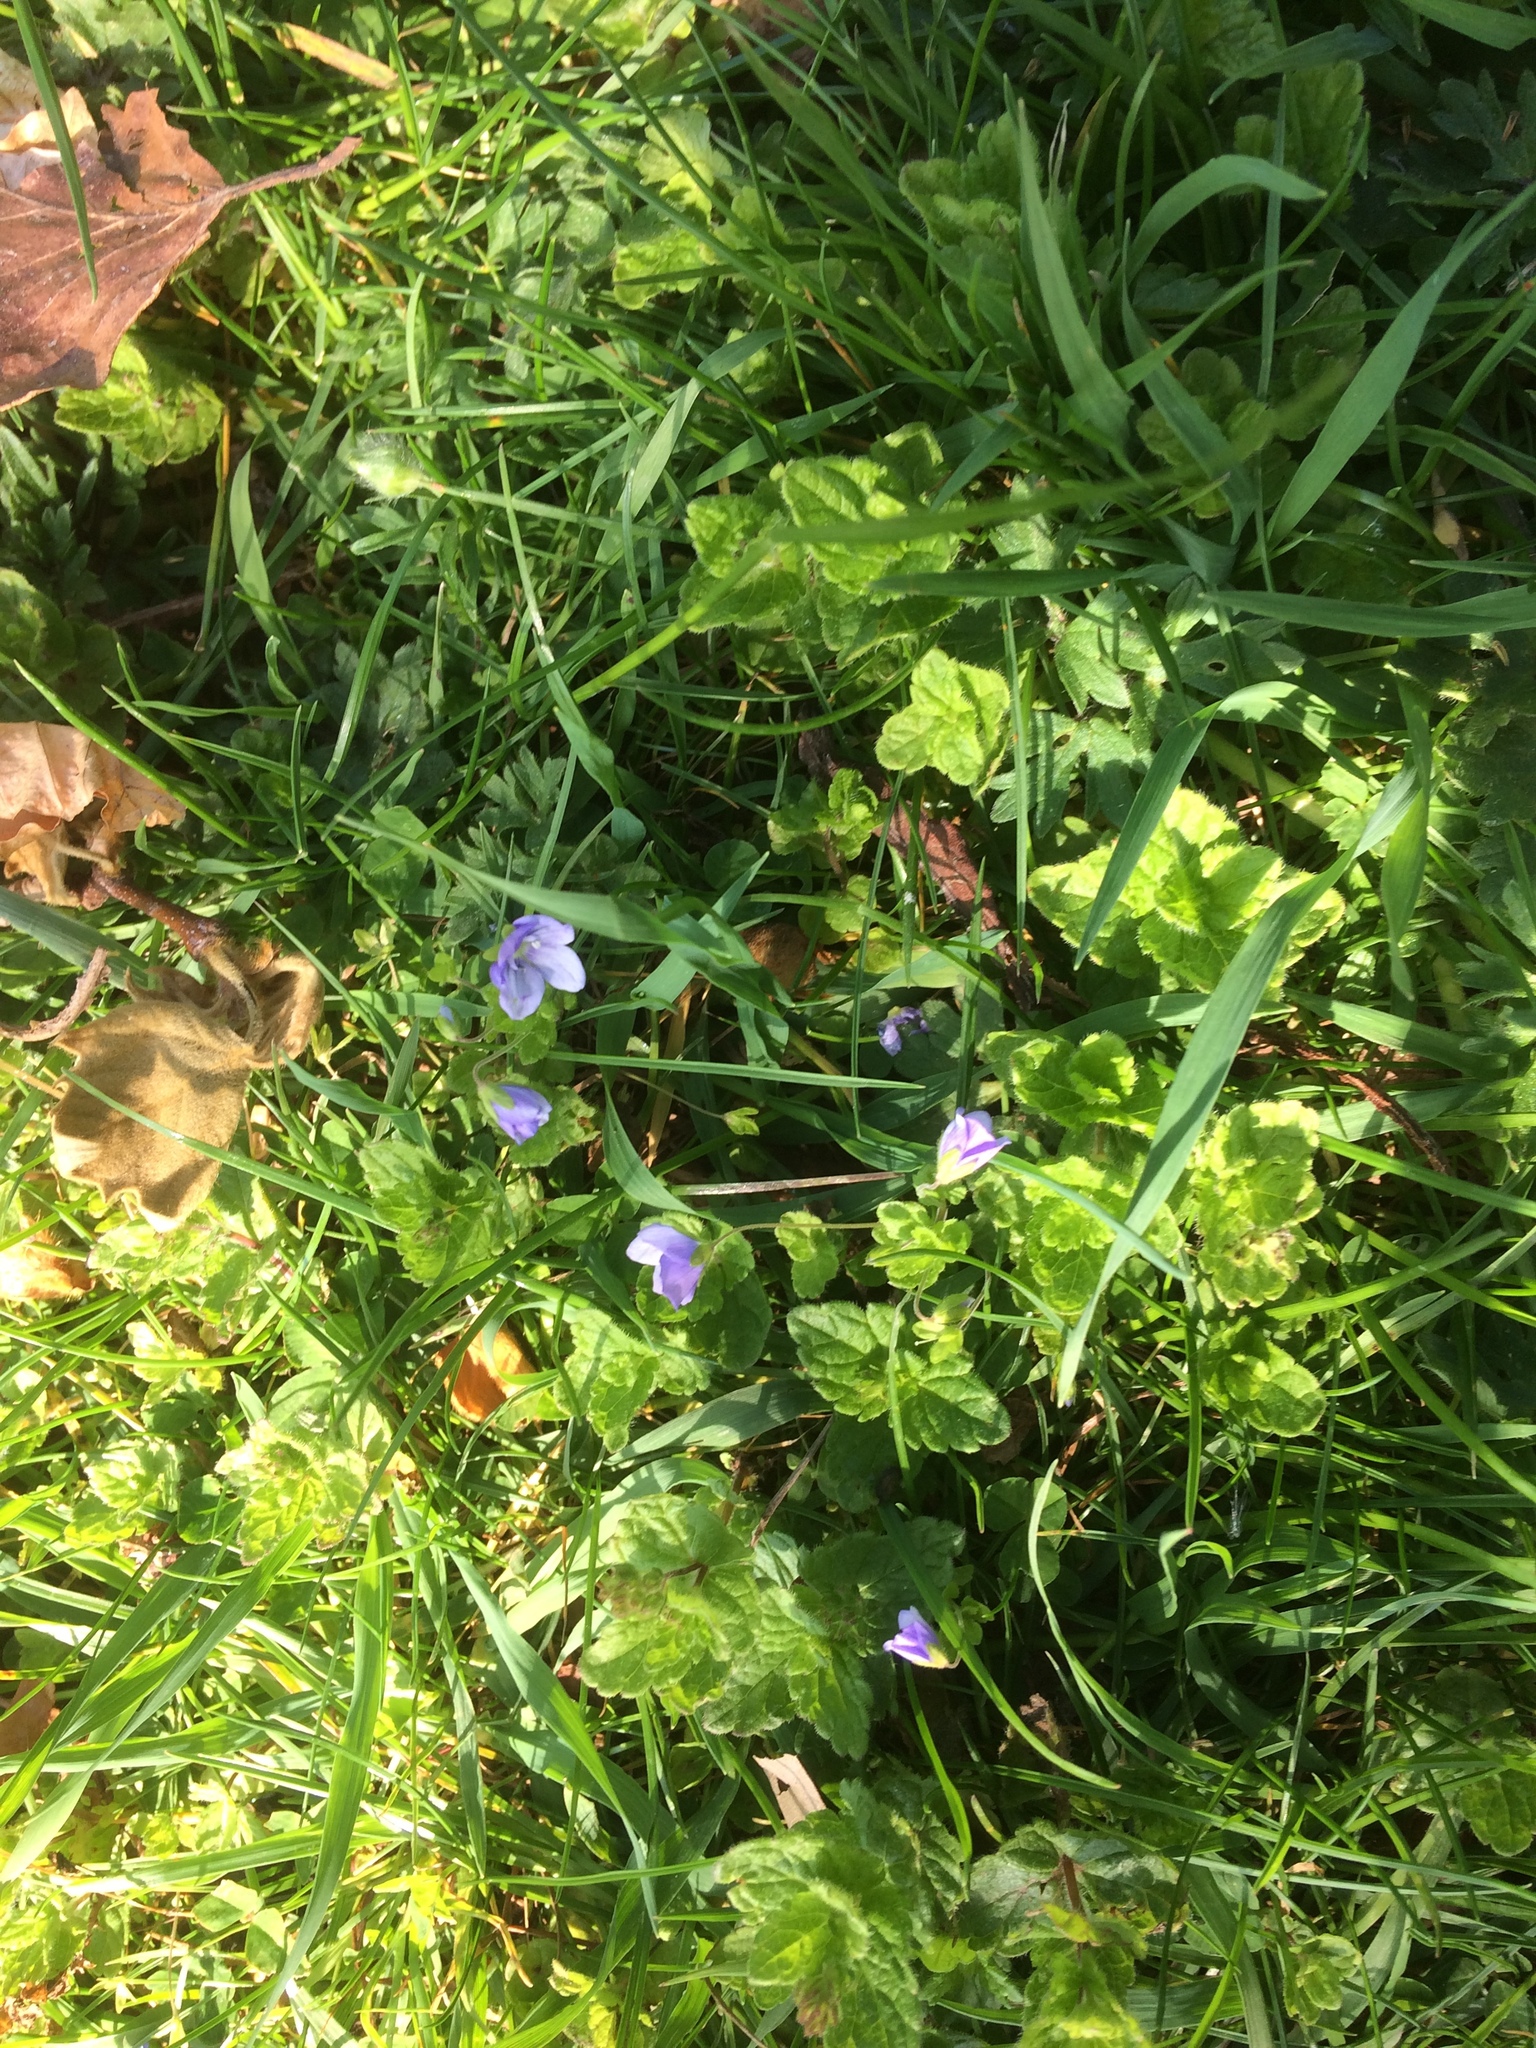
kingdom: Plantae
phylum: Tracheophyta
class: Magnoliopsida
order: Lamiales
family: Plantaginaceae
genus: Veronica
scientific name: Veronica filiformis
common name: Slender speedwell
